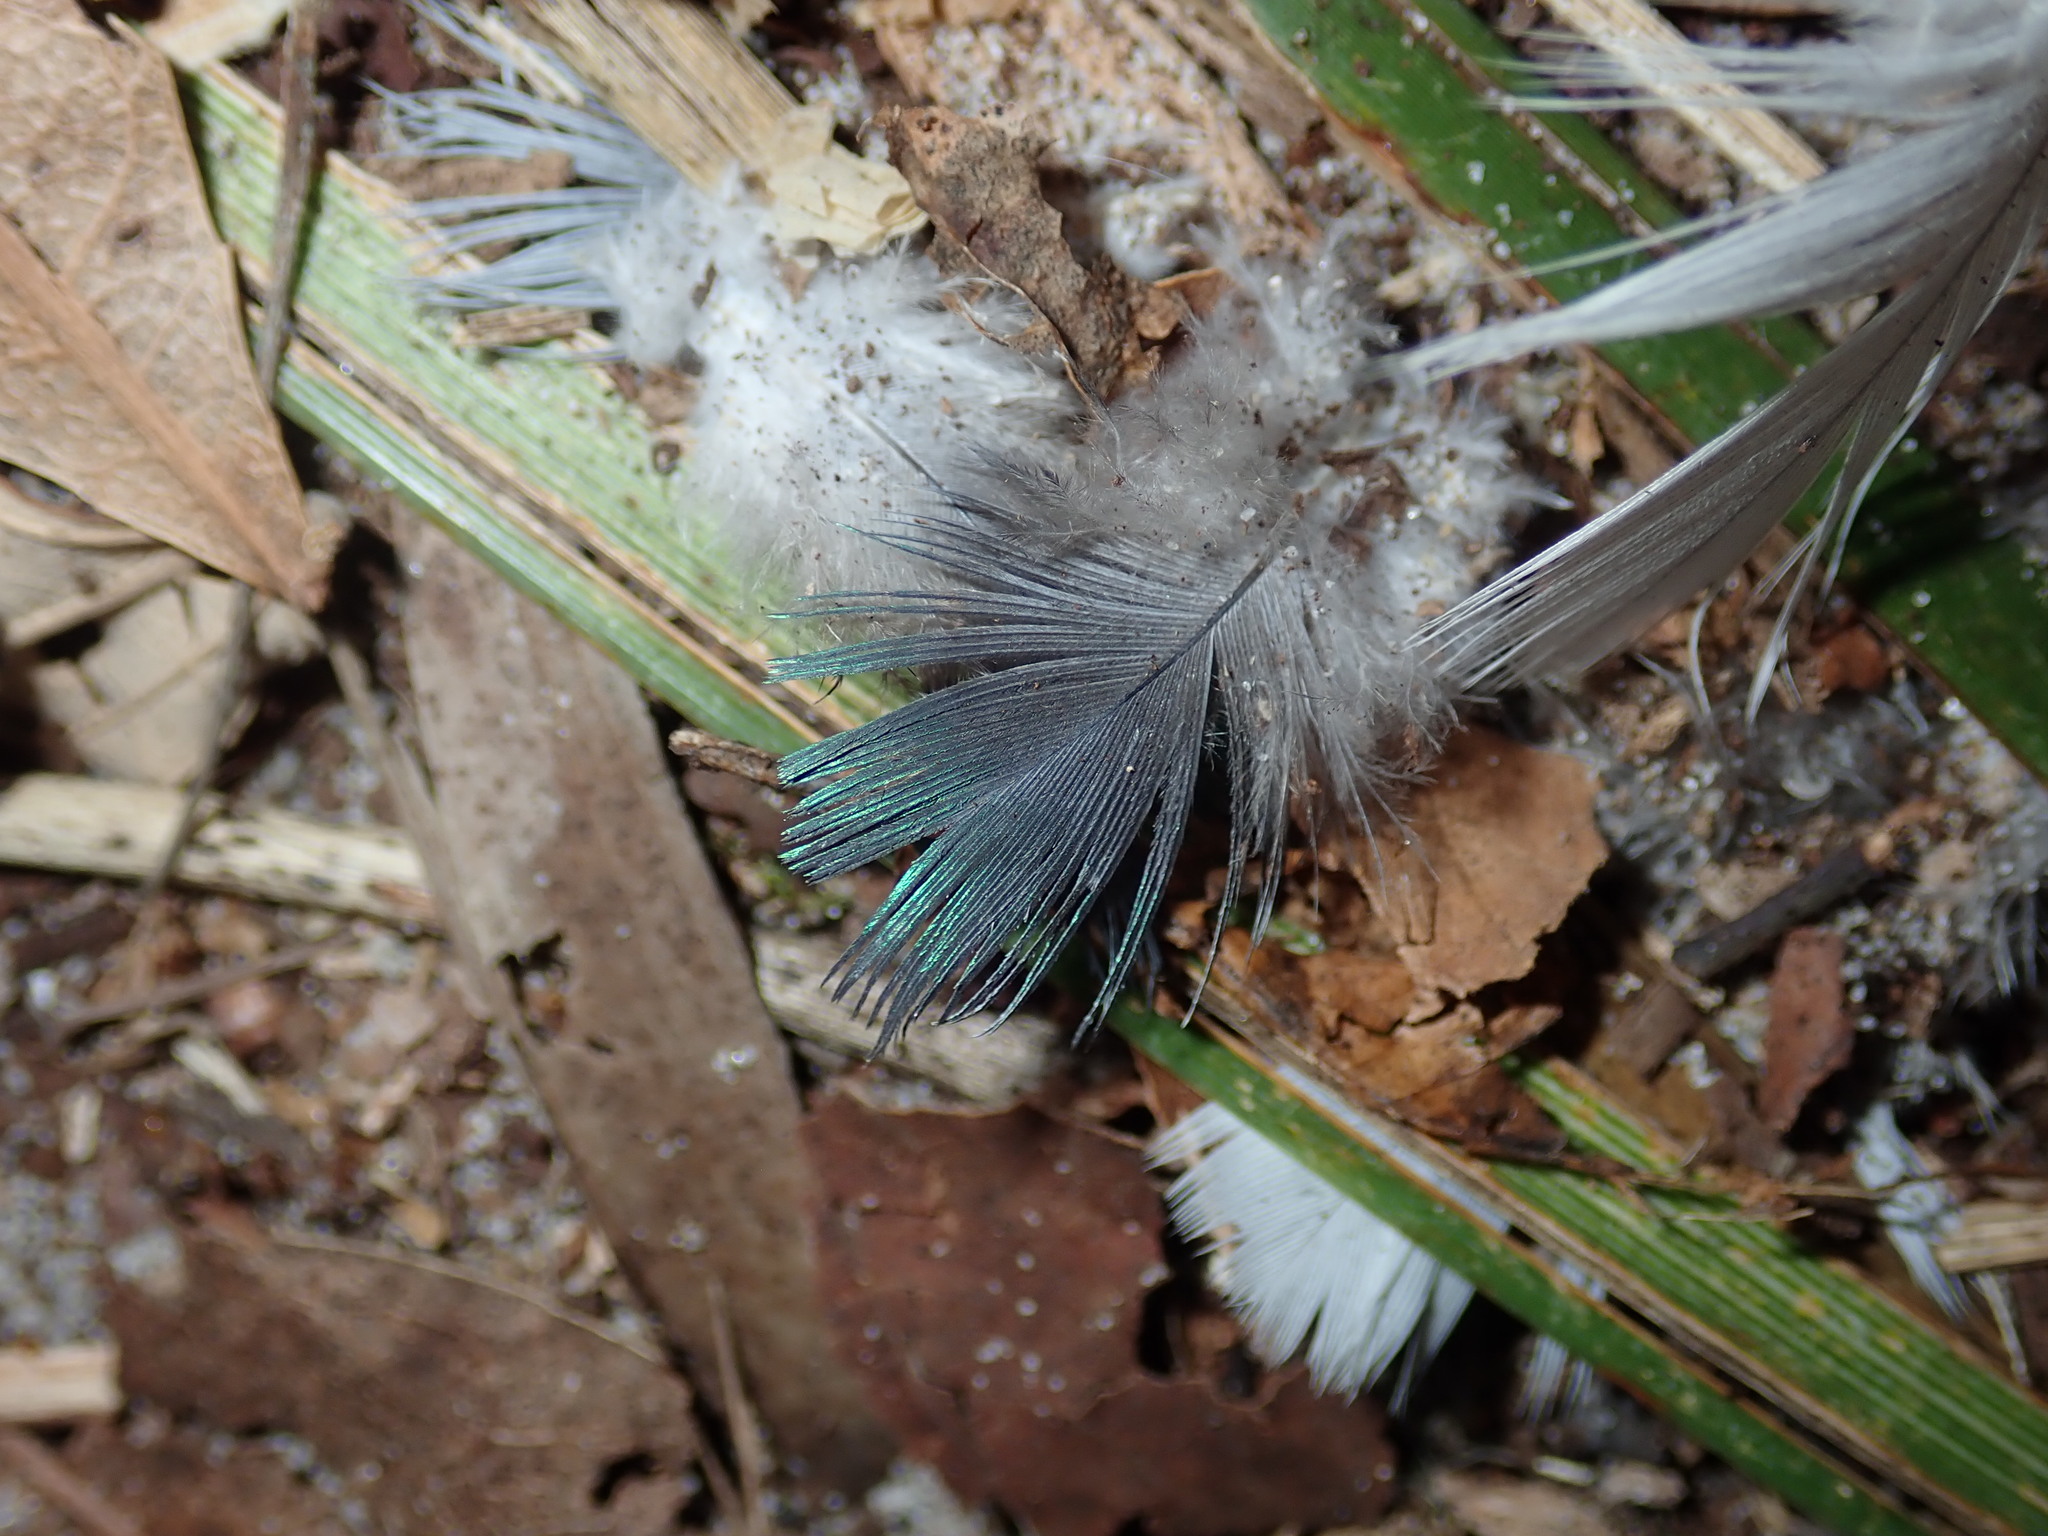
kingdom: Animalia
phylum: Chordata
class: Aves
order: Columbiformes
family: Columbidae
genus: Columba
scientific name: Columba livia
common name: Rock pigeon
